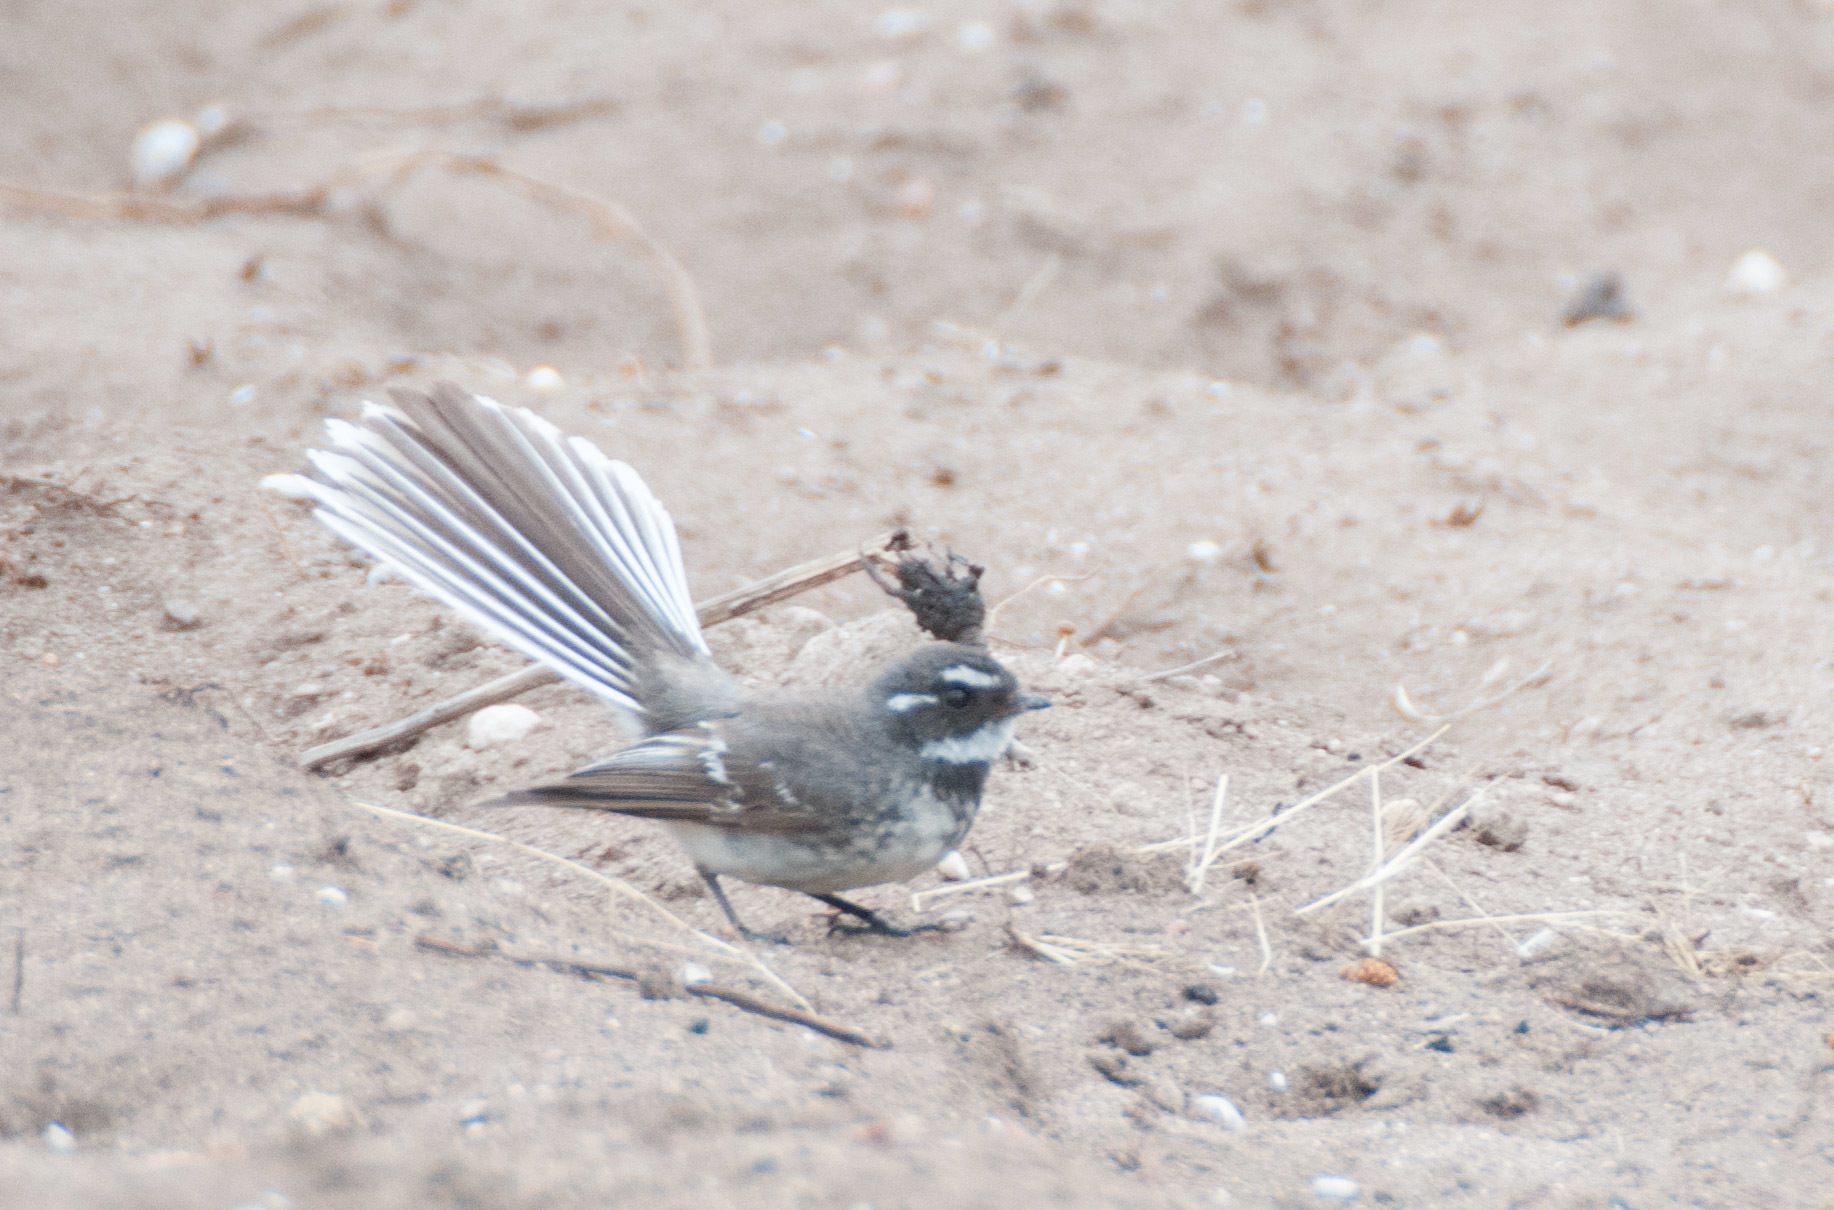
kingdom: Animalia
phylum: Chordata
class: Aves
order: Passeriformes
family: Rhipiduridae
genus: Rhipidura
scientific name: Rhipidura albiscapa
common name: Grey fantail
